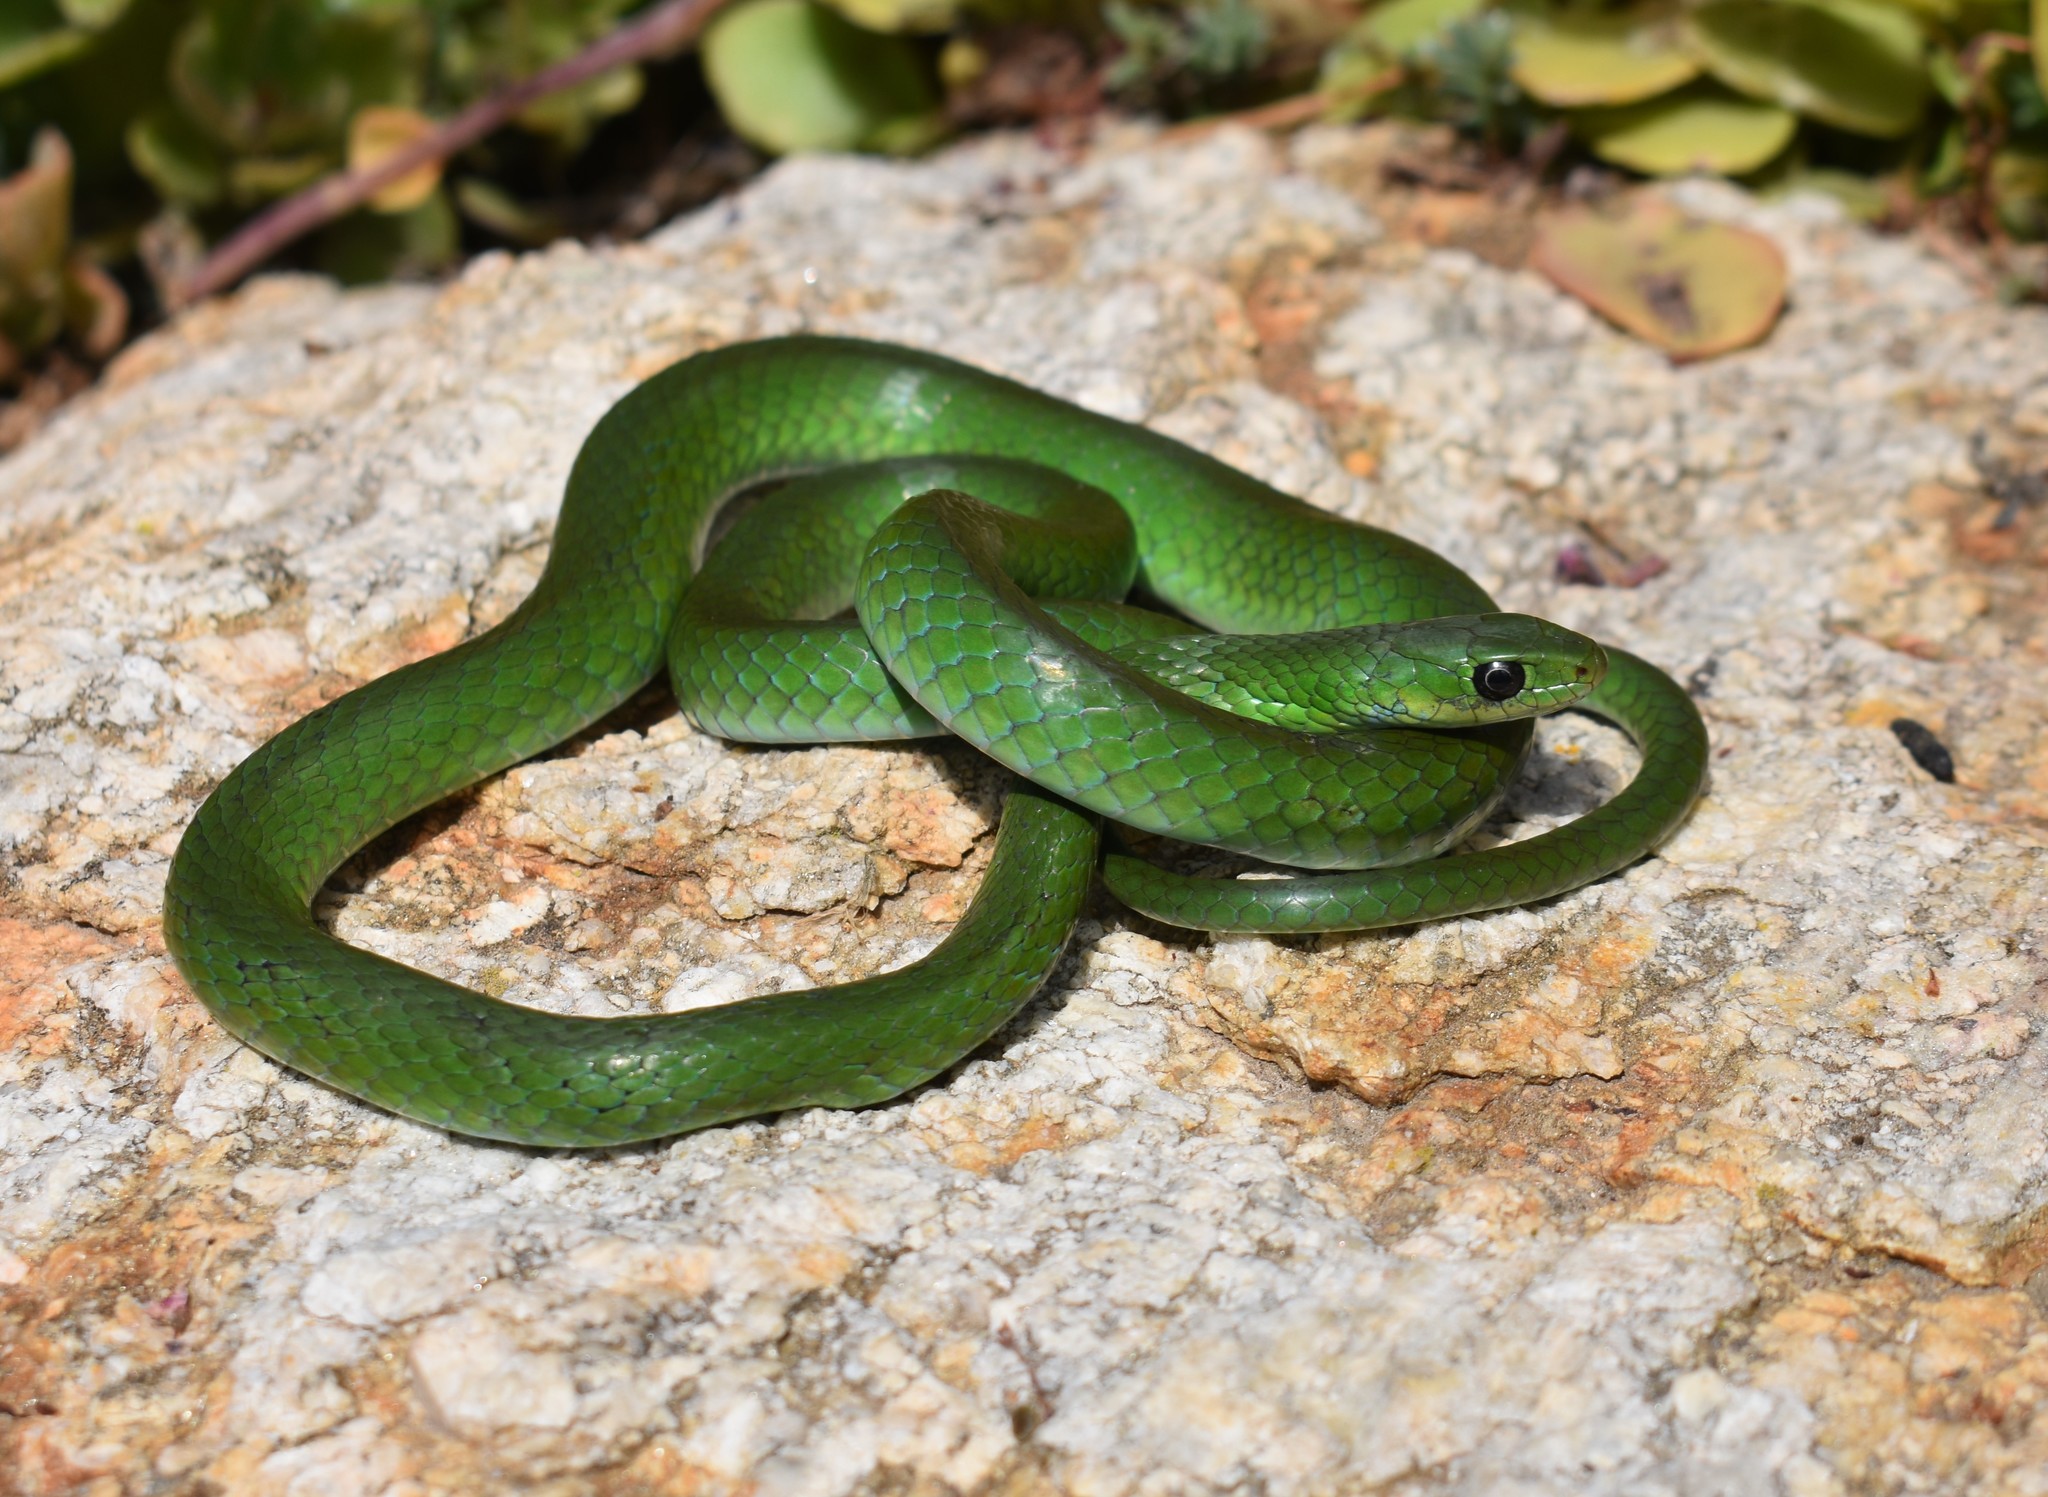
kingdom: Animalia
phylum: Chordata
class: Squamata
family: Colubridae
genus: Philothamnus
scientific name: Philothamnus hoplogaster
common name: Green water snake
